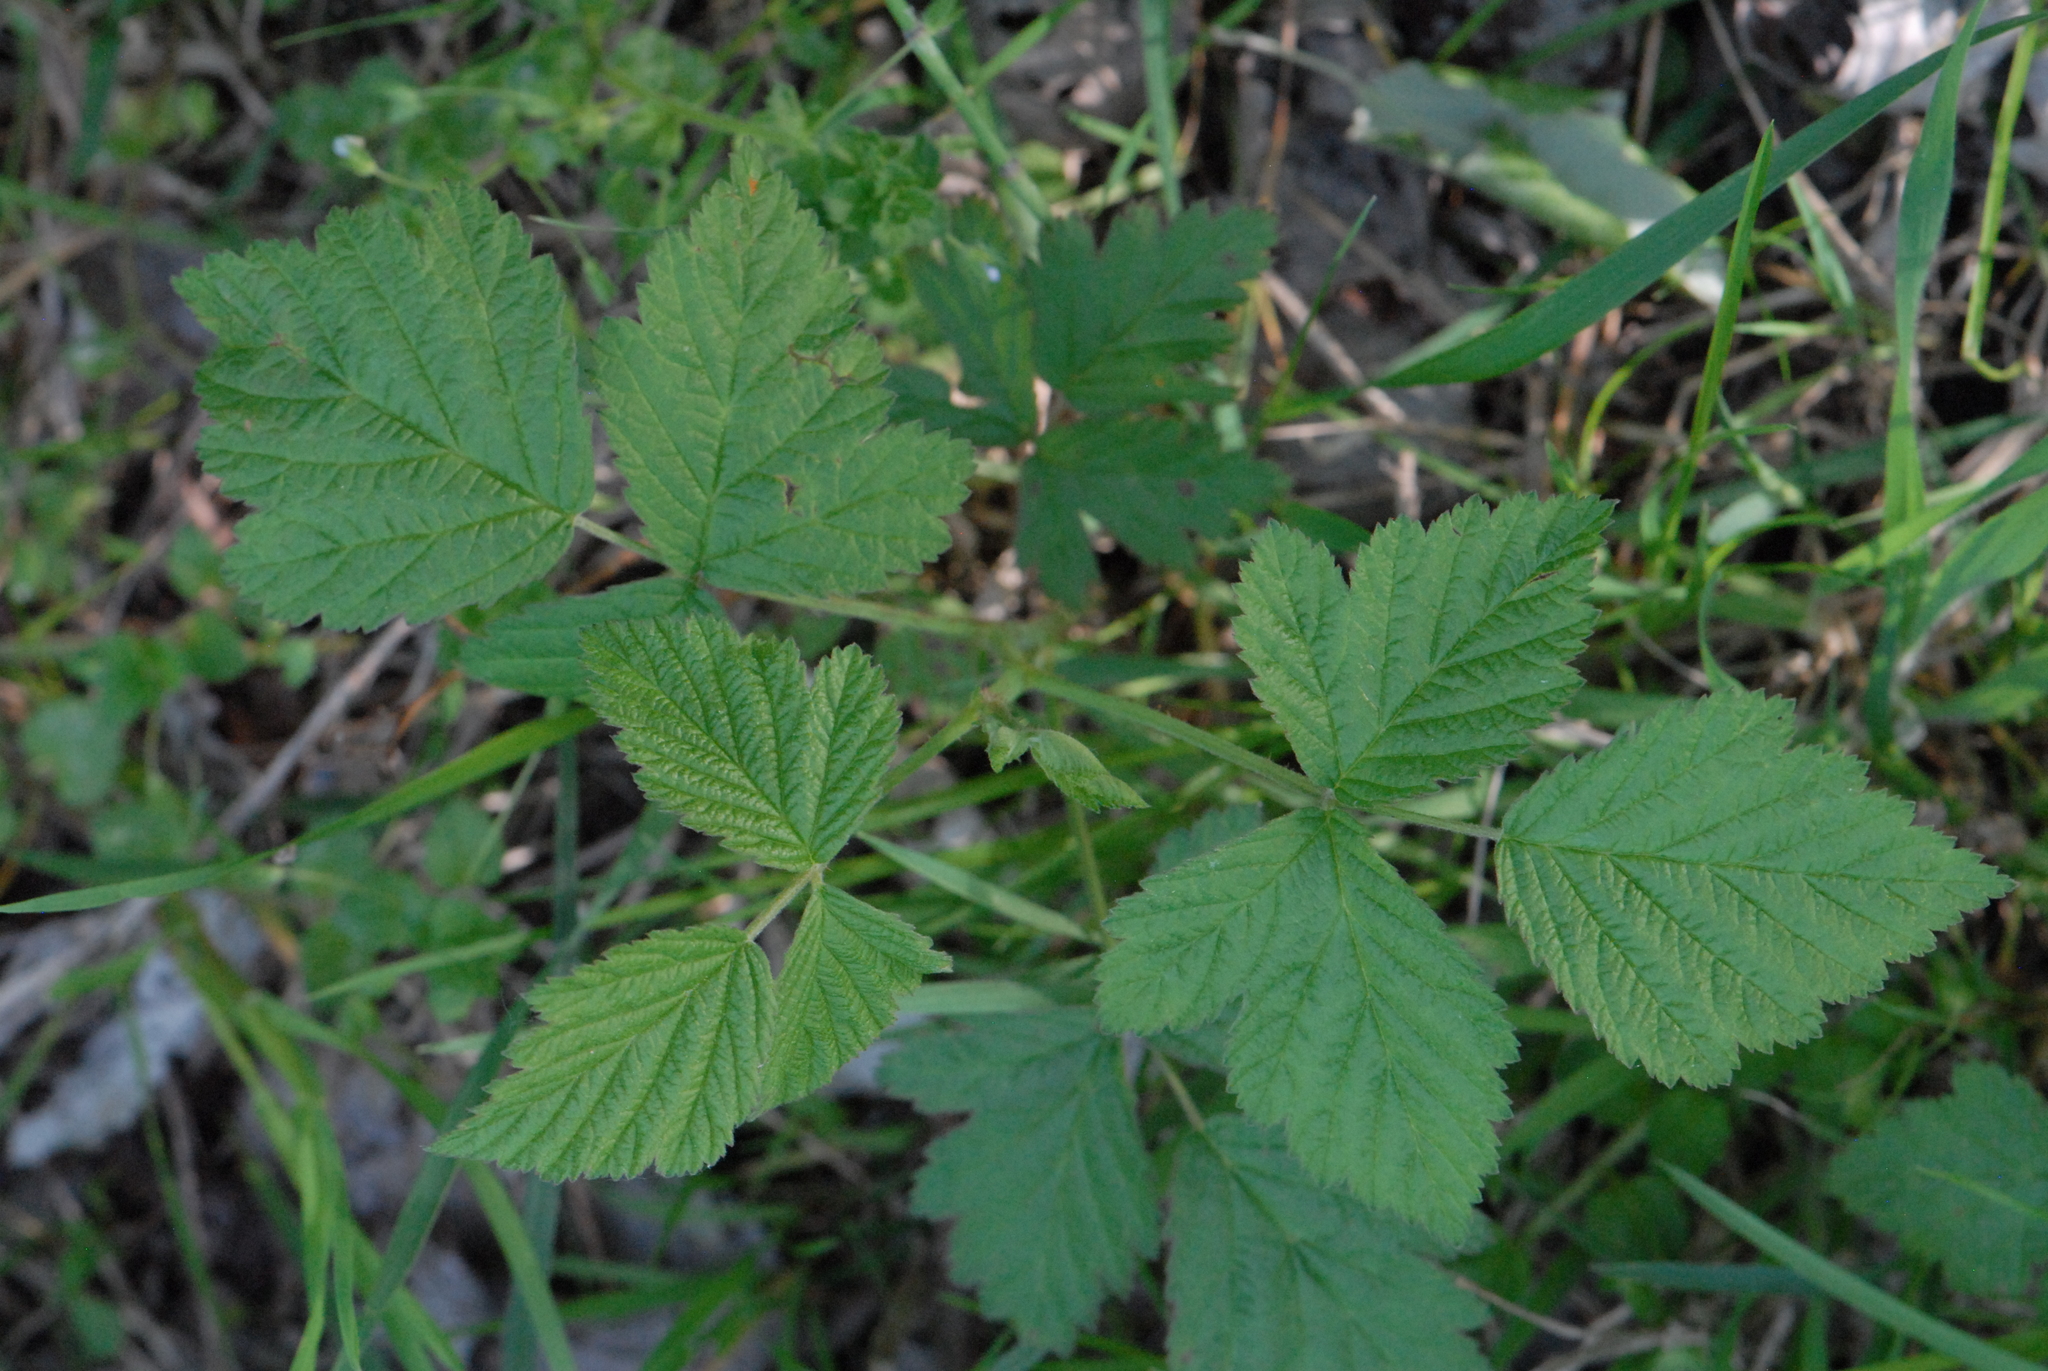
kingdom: Plantae
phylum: Tracheophyta
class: Magnoliopsida
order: Rosales
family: Rosaceae
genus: Rubus
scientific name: Rubus caesius
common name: Dewberry
